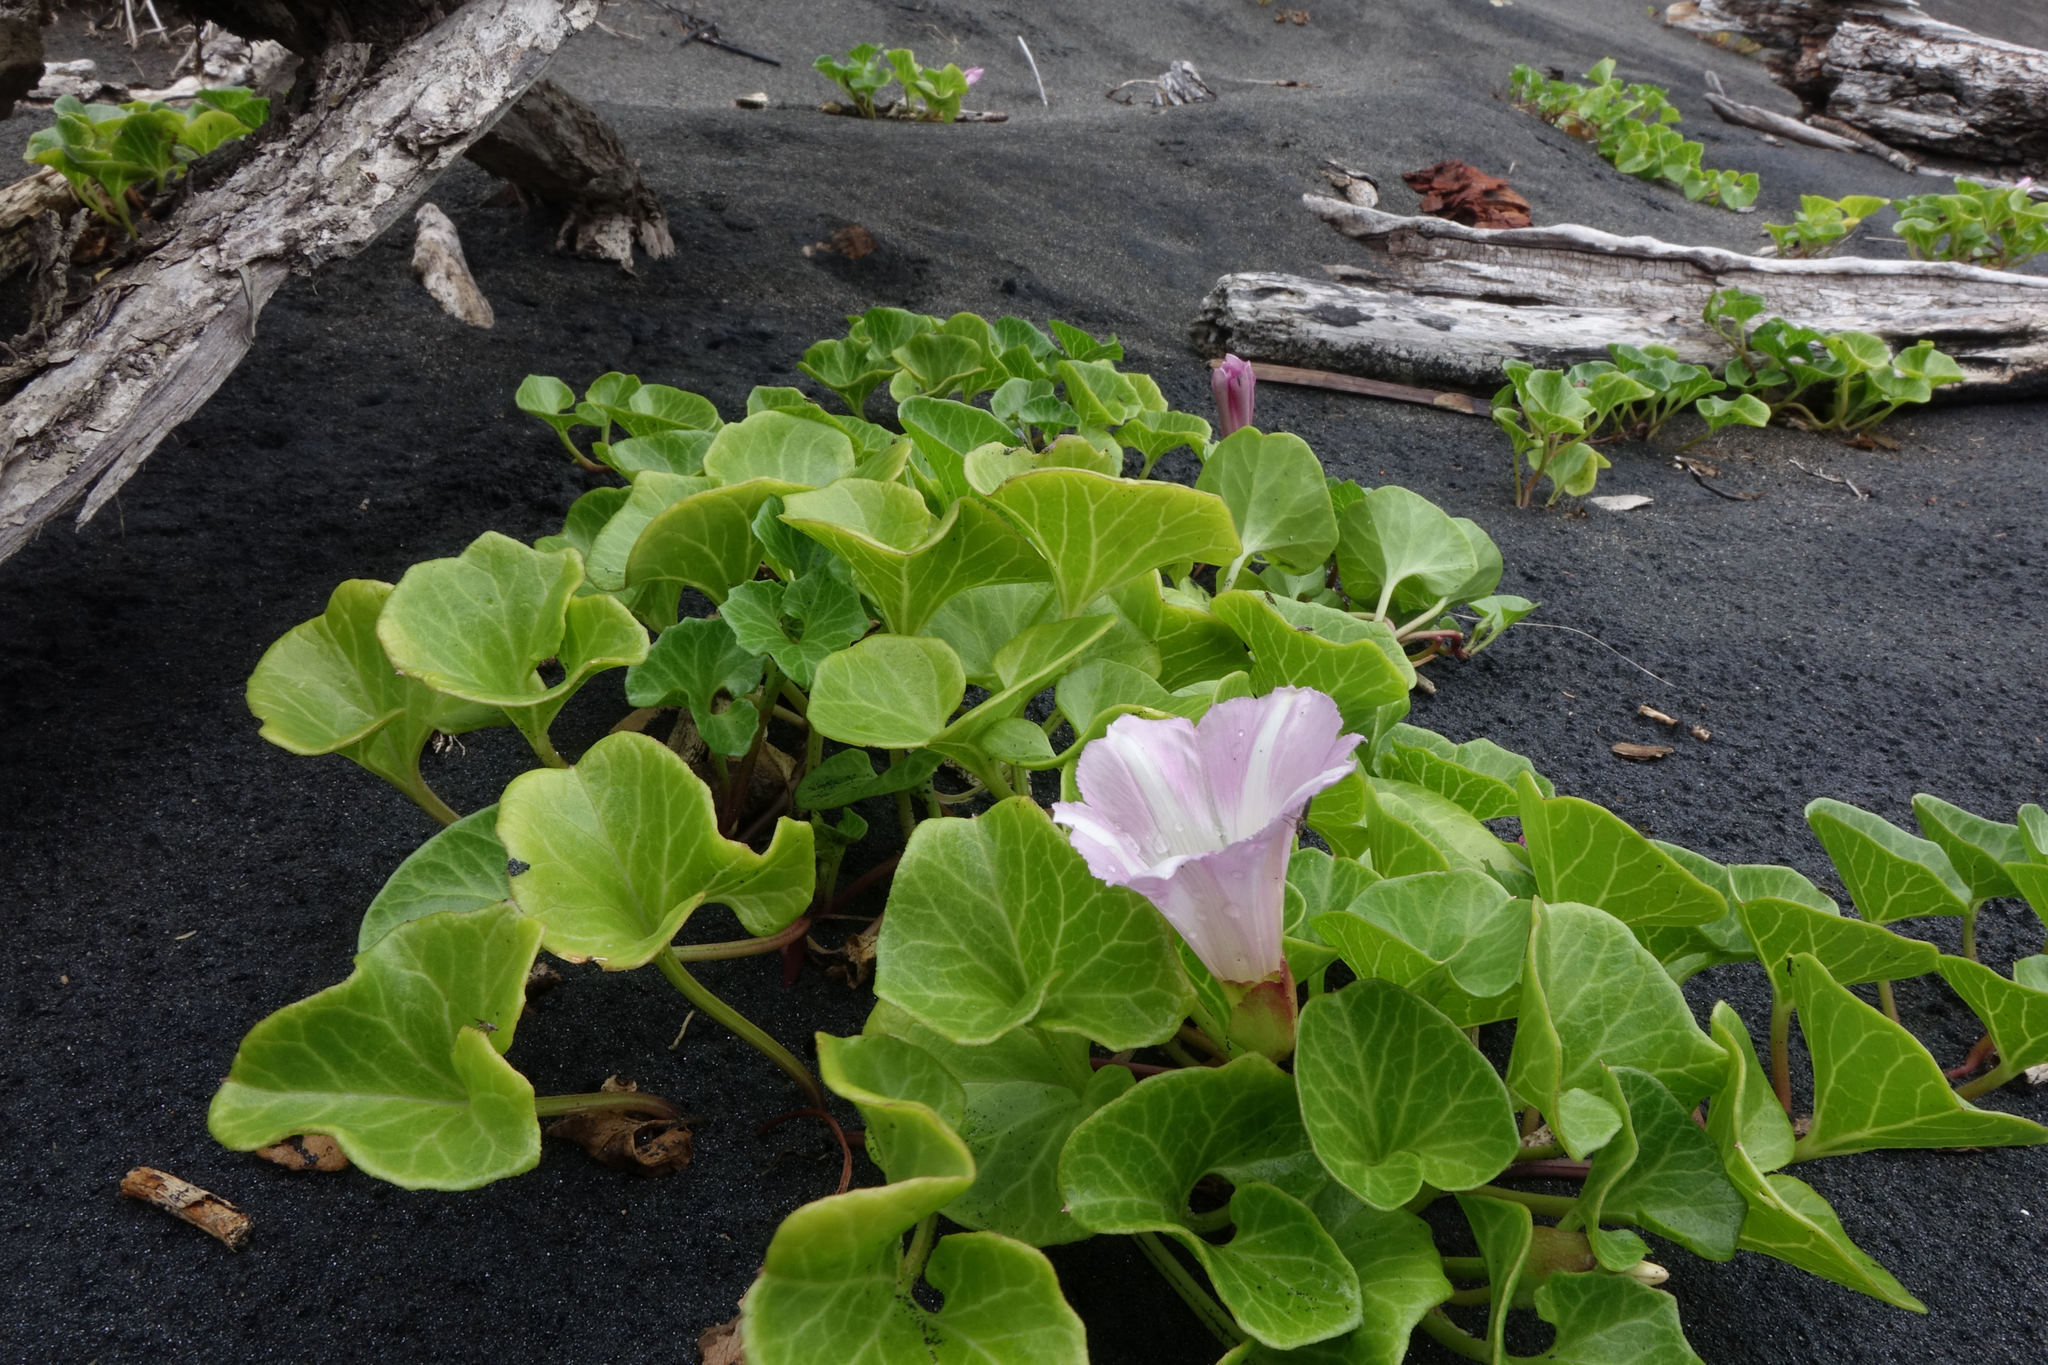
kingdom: Plantae
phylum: Tracheophyta
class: Magnoliopsida
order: Solanales
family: Convolvulaceae
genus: Calystegia
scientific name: Calystegia soldanella
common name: Sea bindweed
